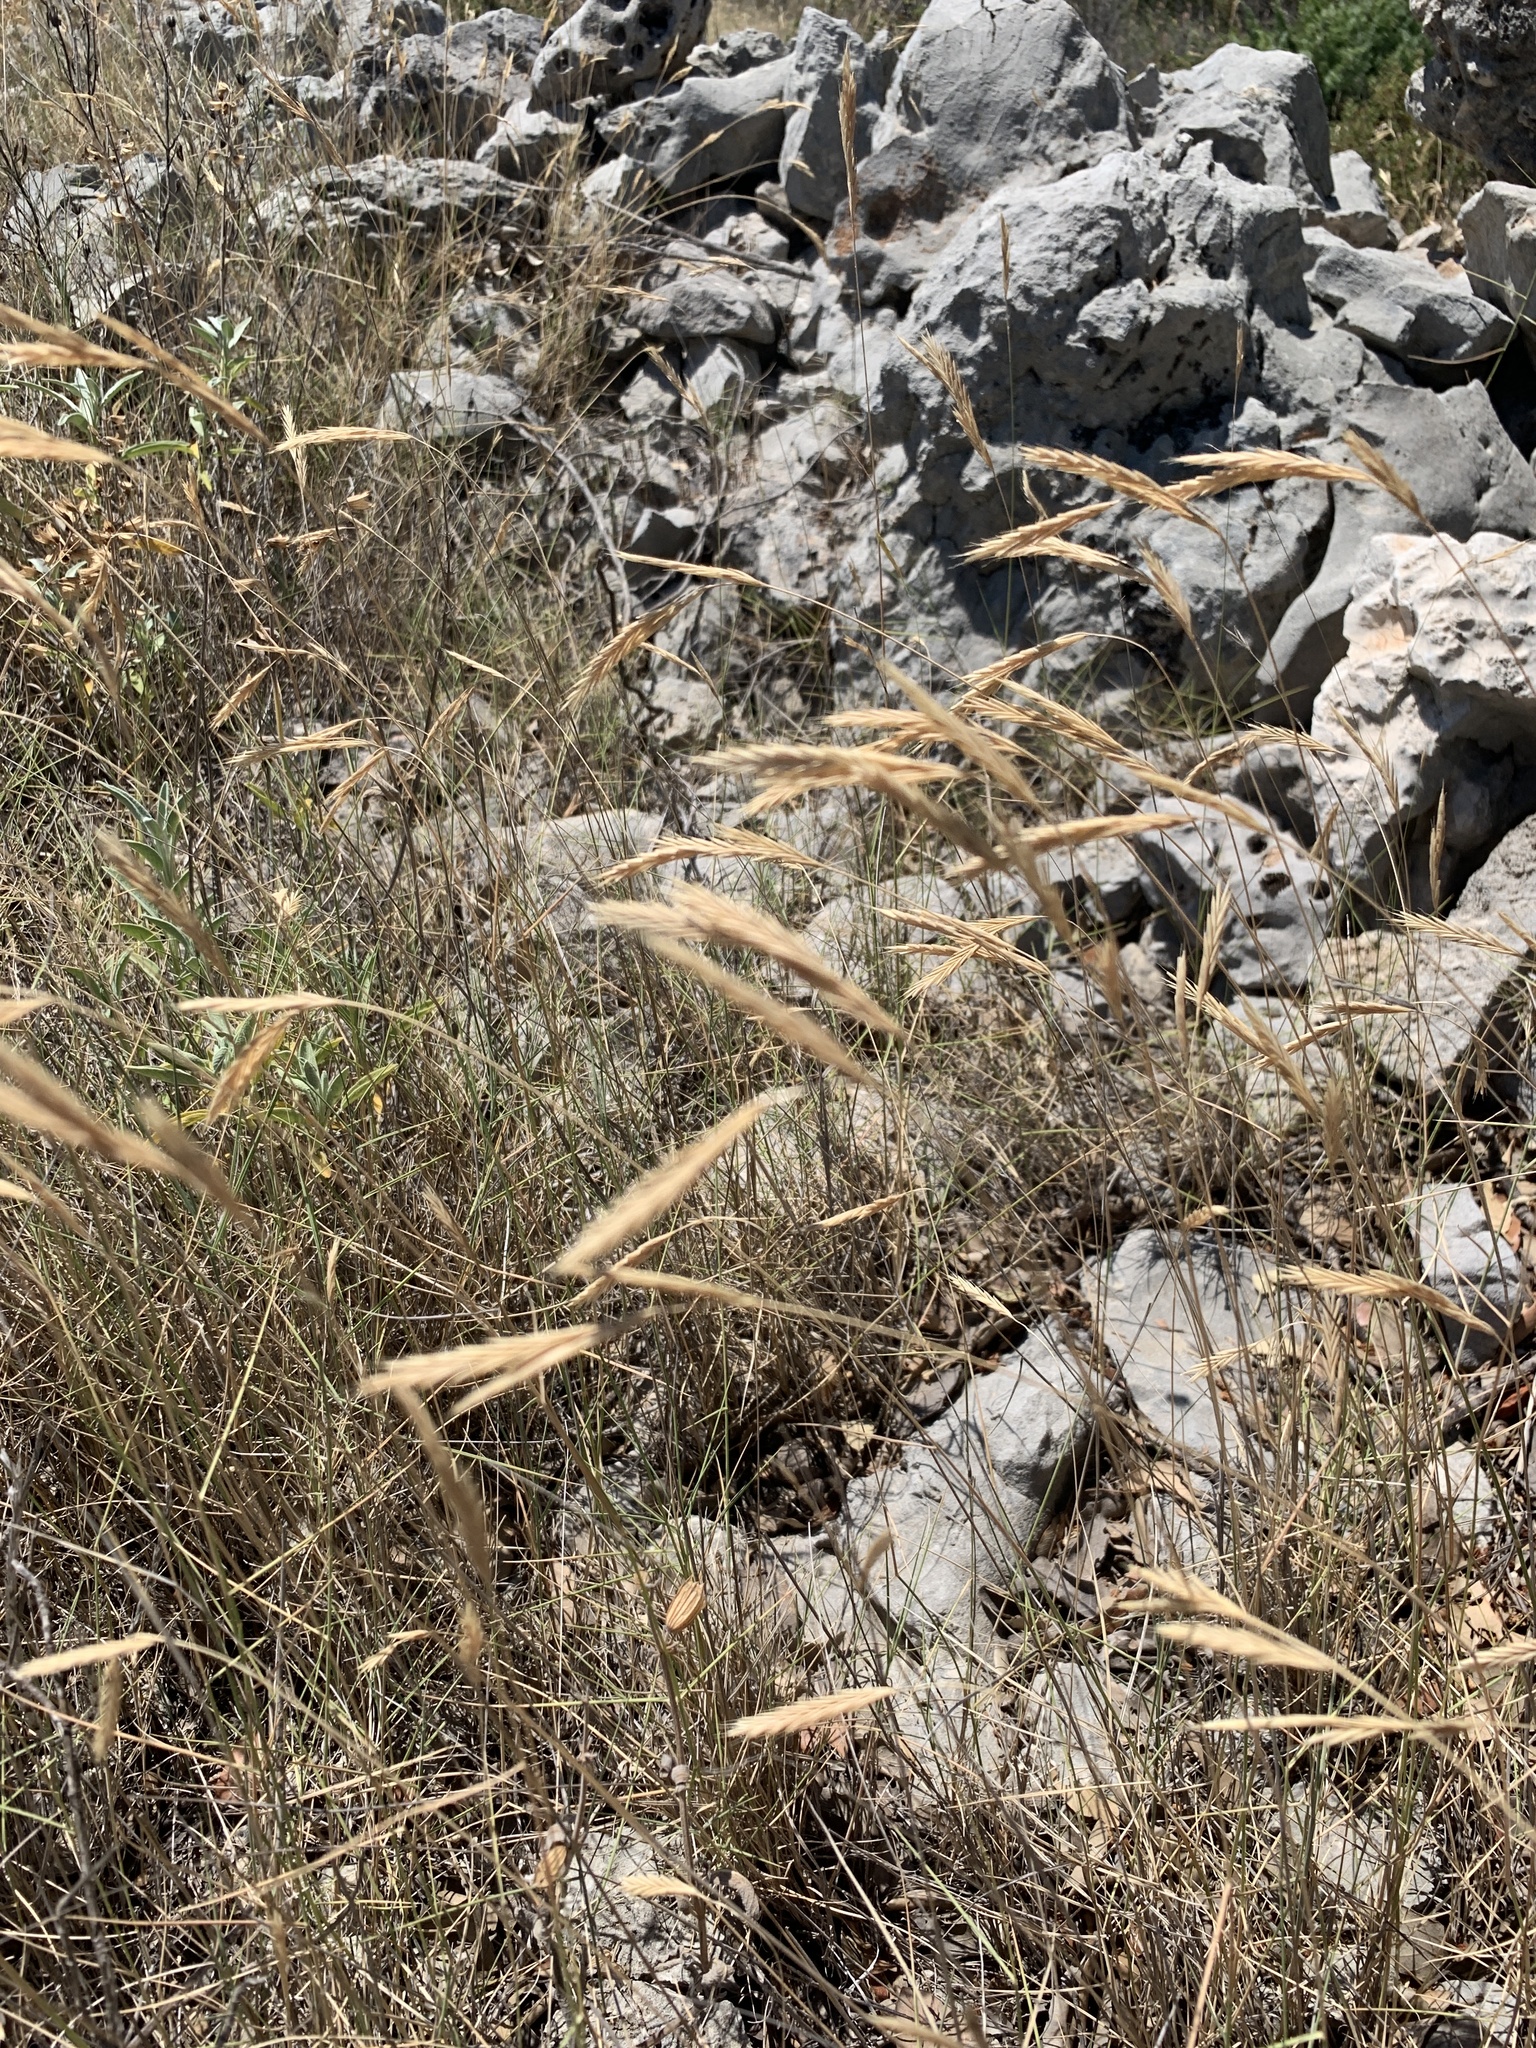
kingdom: Plantae
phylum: Tracheophyta
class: Liliopsida
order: Poales
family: Poaceae
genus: Brachypodium
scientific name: Brachypodium retusum
